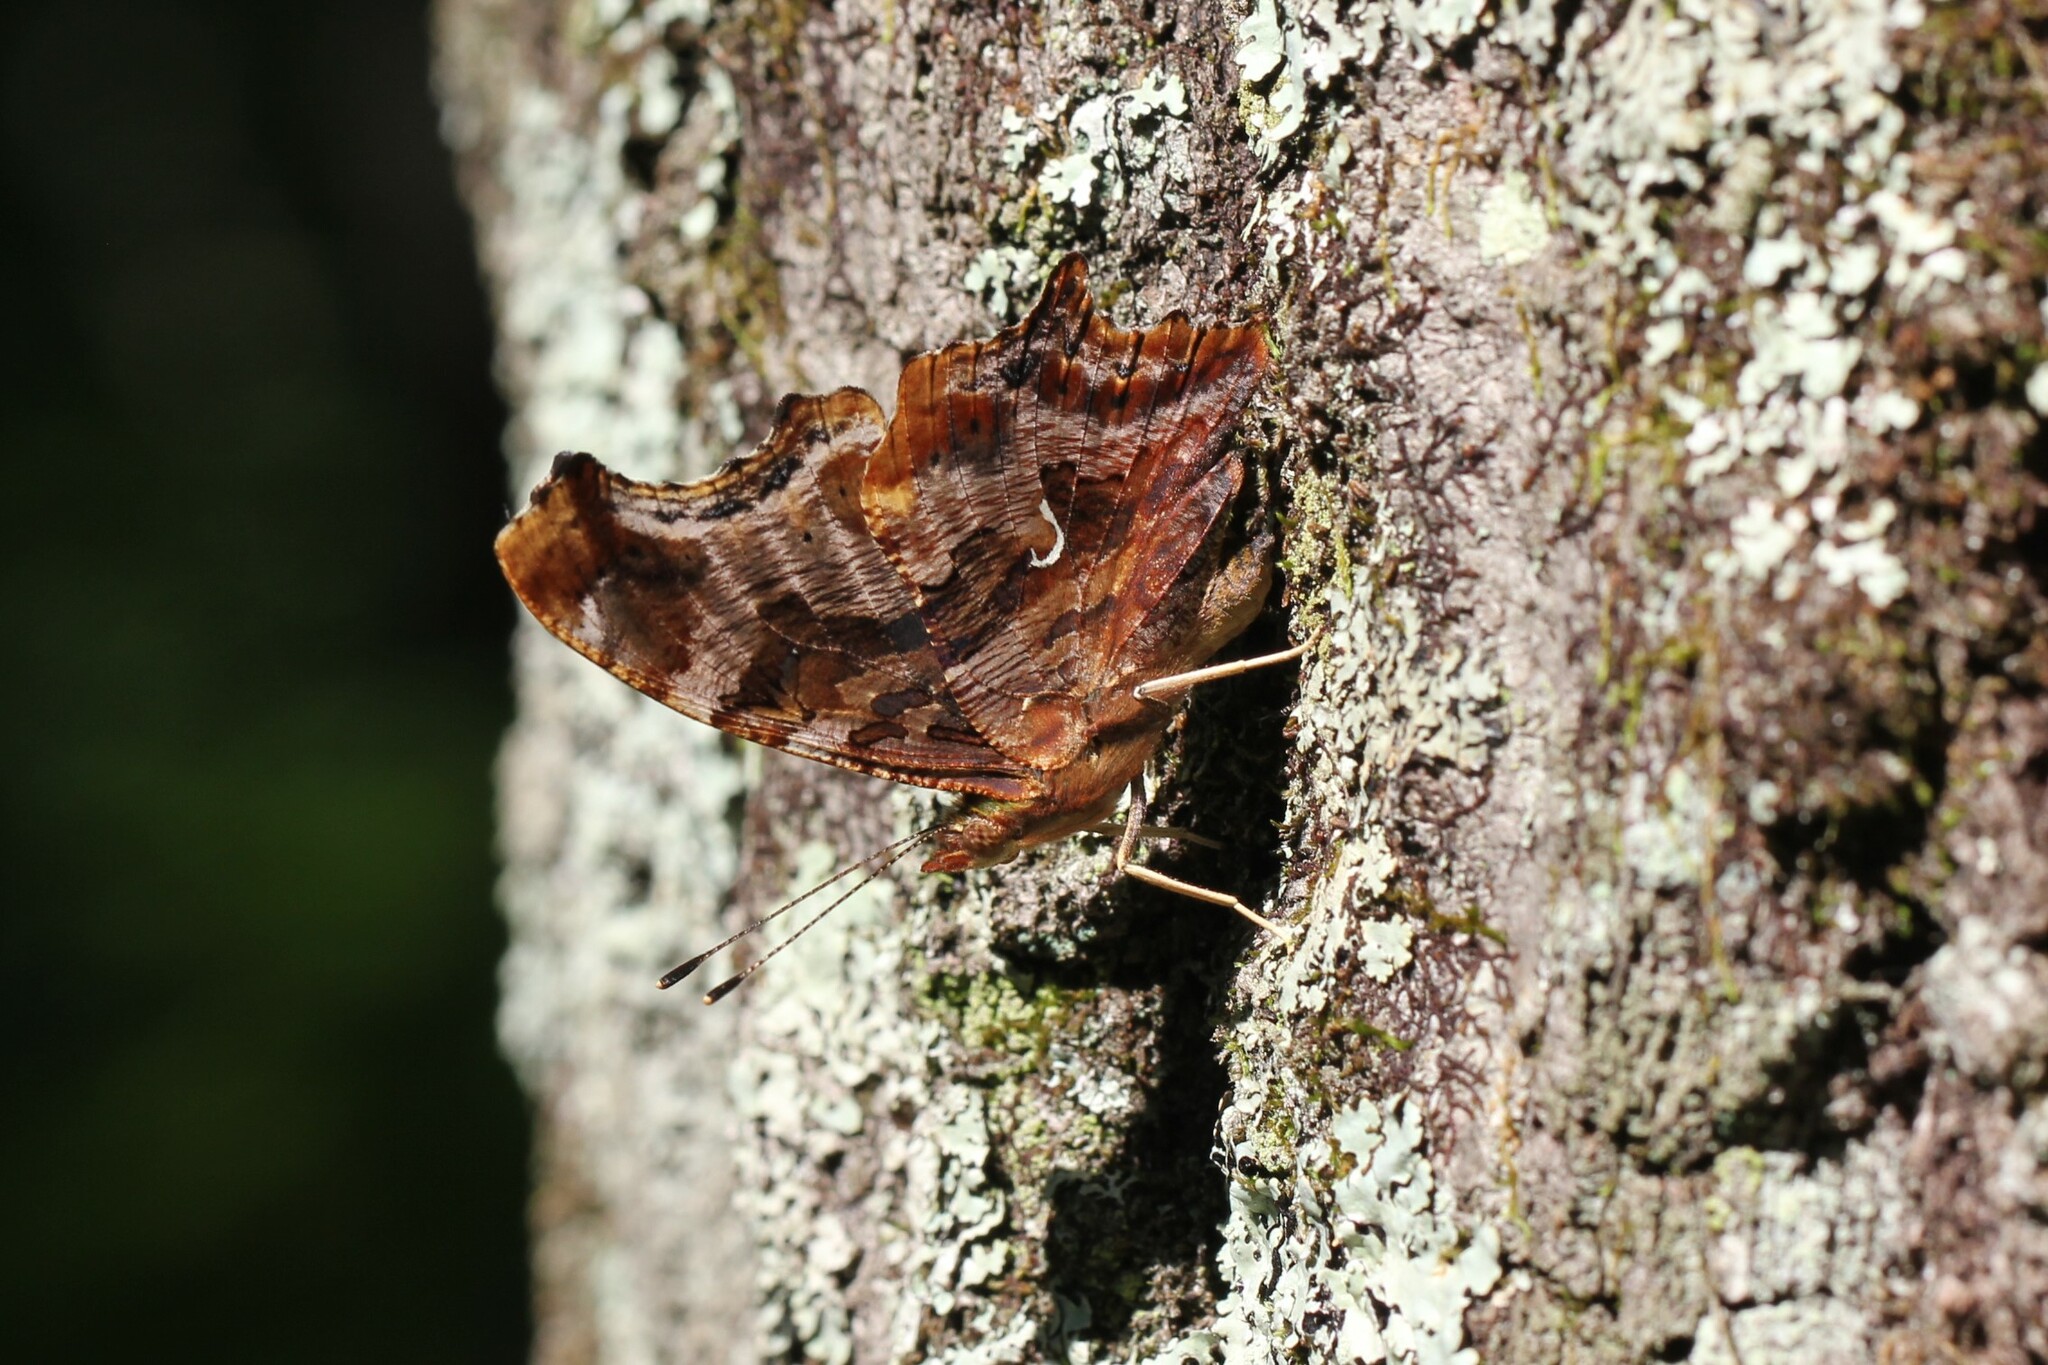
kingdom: Animalia
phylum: Arthropoda
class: Insecta
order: Lepidoptera
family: Nymphalidae
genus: Polygonia
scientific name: Polygonia comma
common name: Eastern comma
